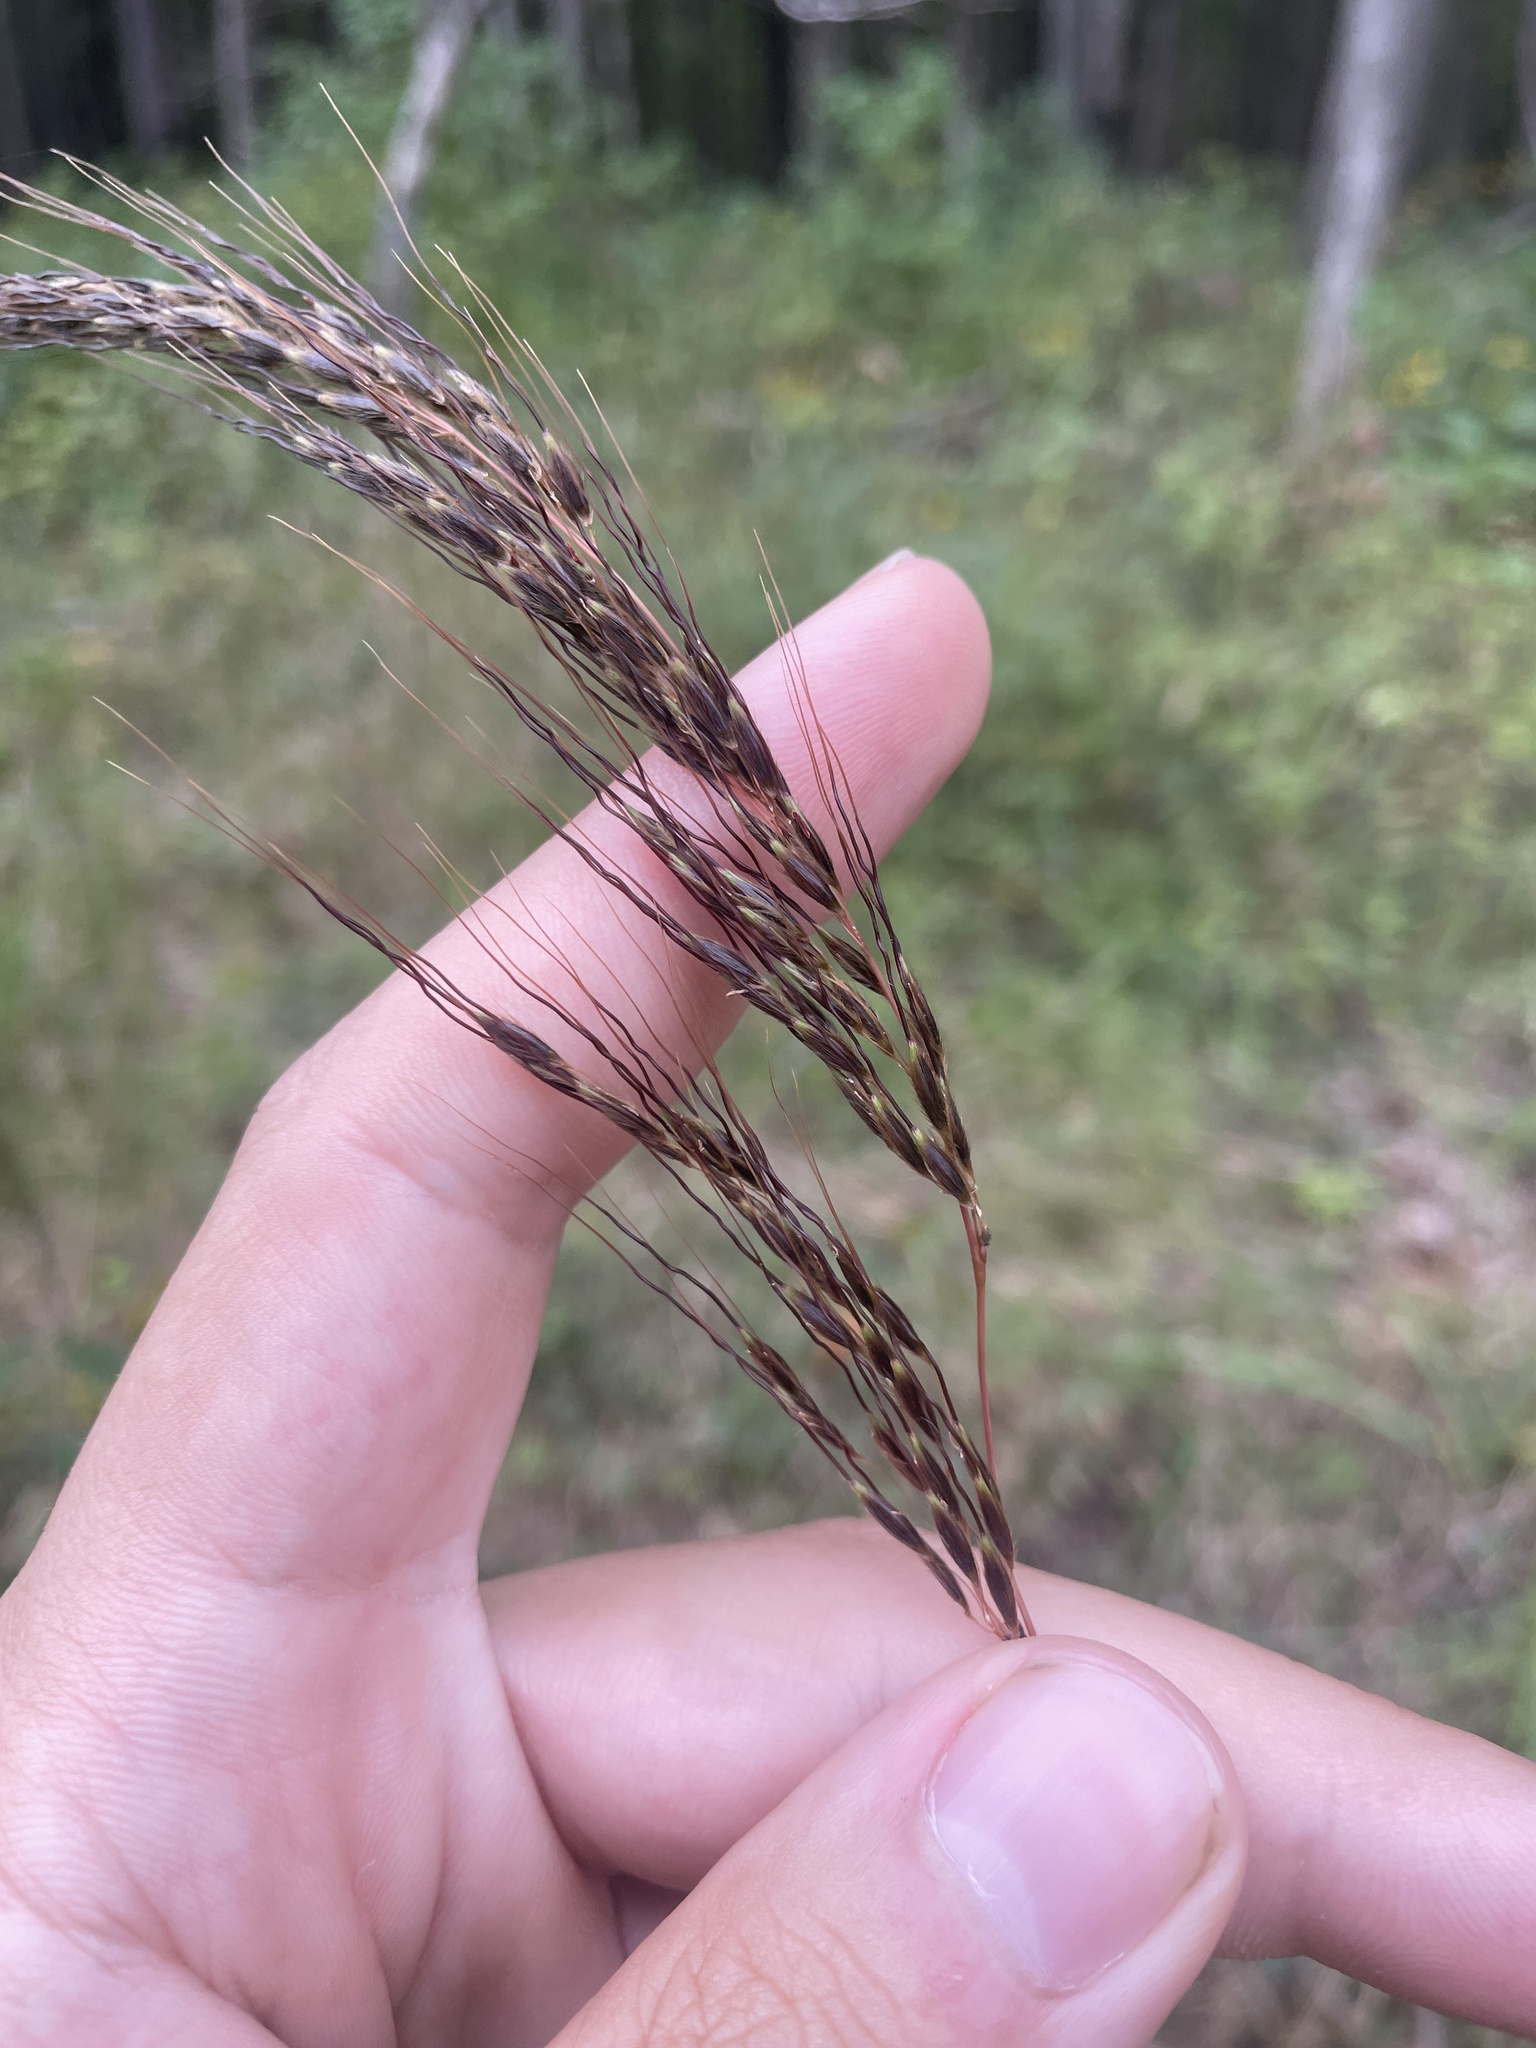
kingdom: Plantae
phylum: Tracheophyta
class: Liliopsida
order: Poales
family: Poaceae
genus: Sorghastrum
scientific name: Sorghastrum elliottii
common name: Slender indian grass
